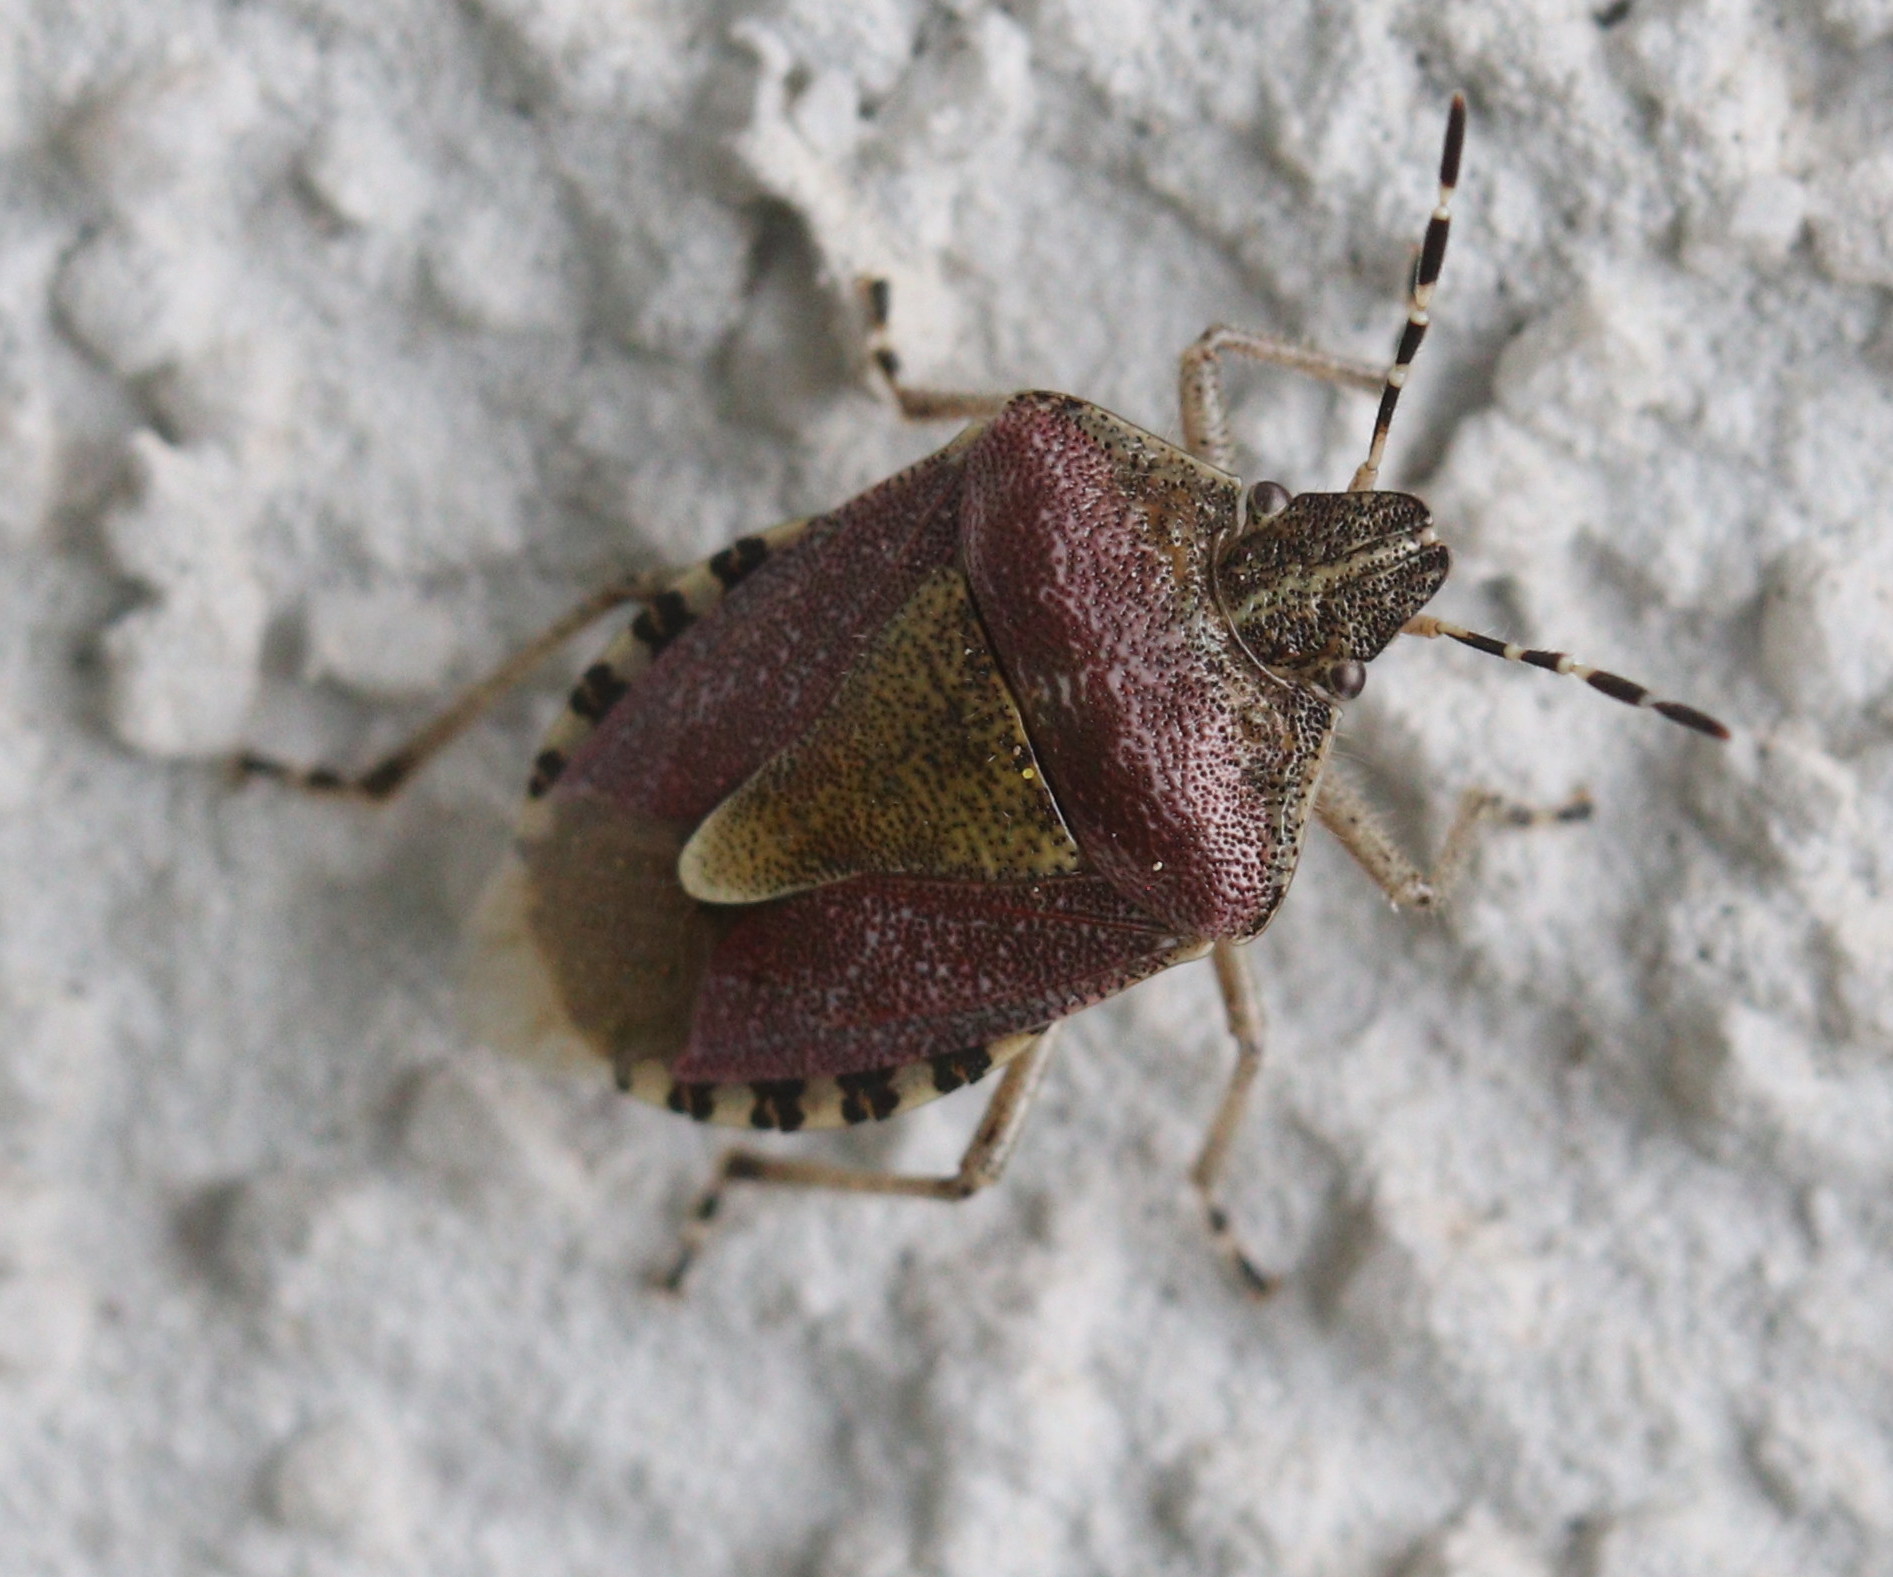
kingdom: Animalia
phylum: Arthropoda
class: Insecta
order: Hemiptera
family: Pentatomidae
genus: Dolycoris
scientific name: Dolycoris baccarum
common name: Sloe bug
